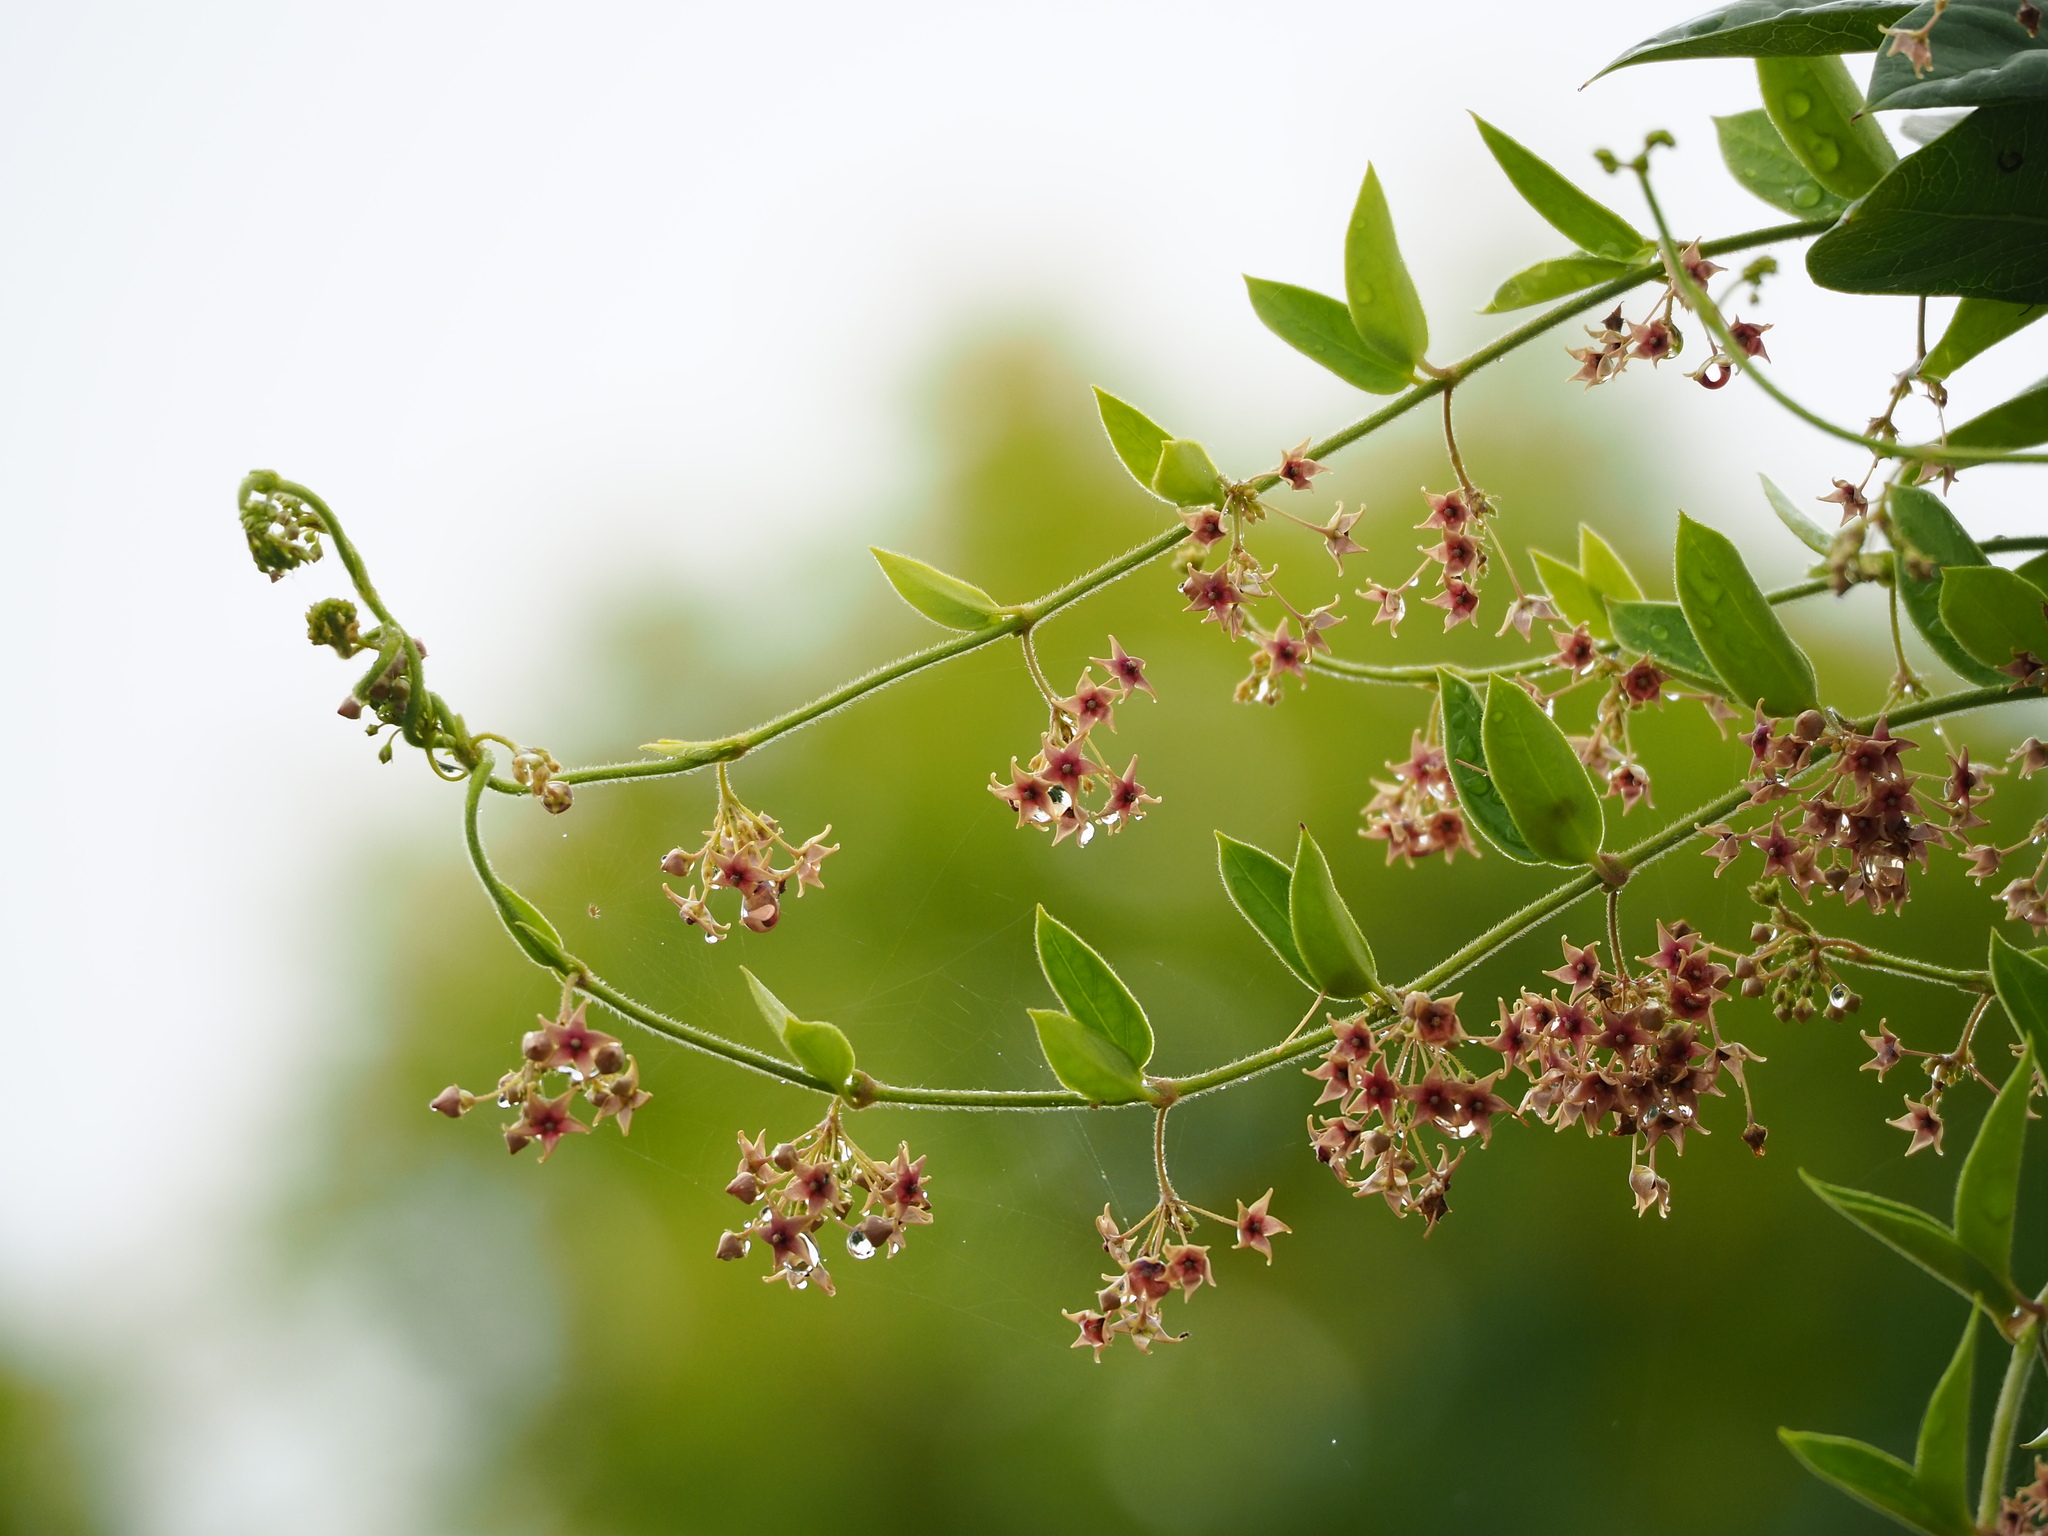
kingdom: Plantae
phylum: Tracheophyta
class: Magnoliopsida
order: Gentianales
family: Apocynaceae
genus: Vincetoxicum
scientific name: Vincetoxicum hirsutum
